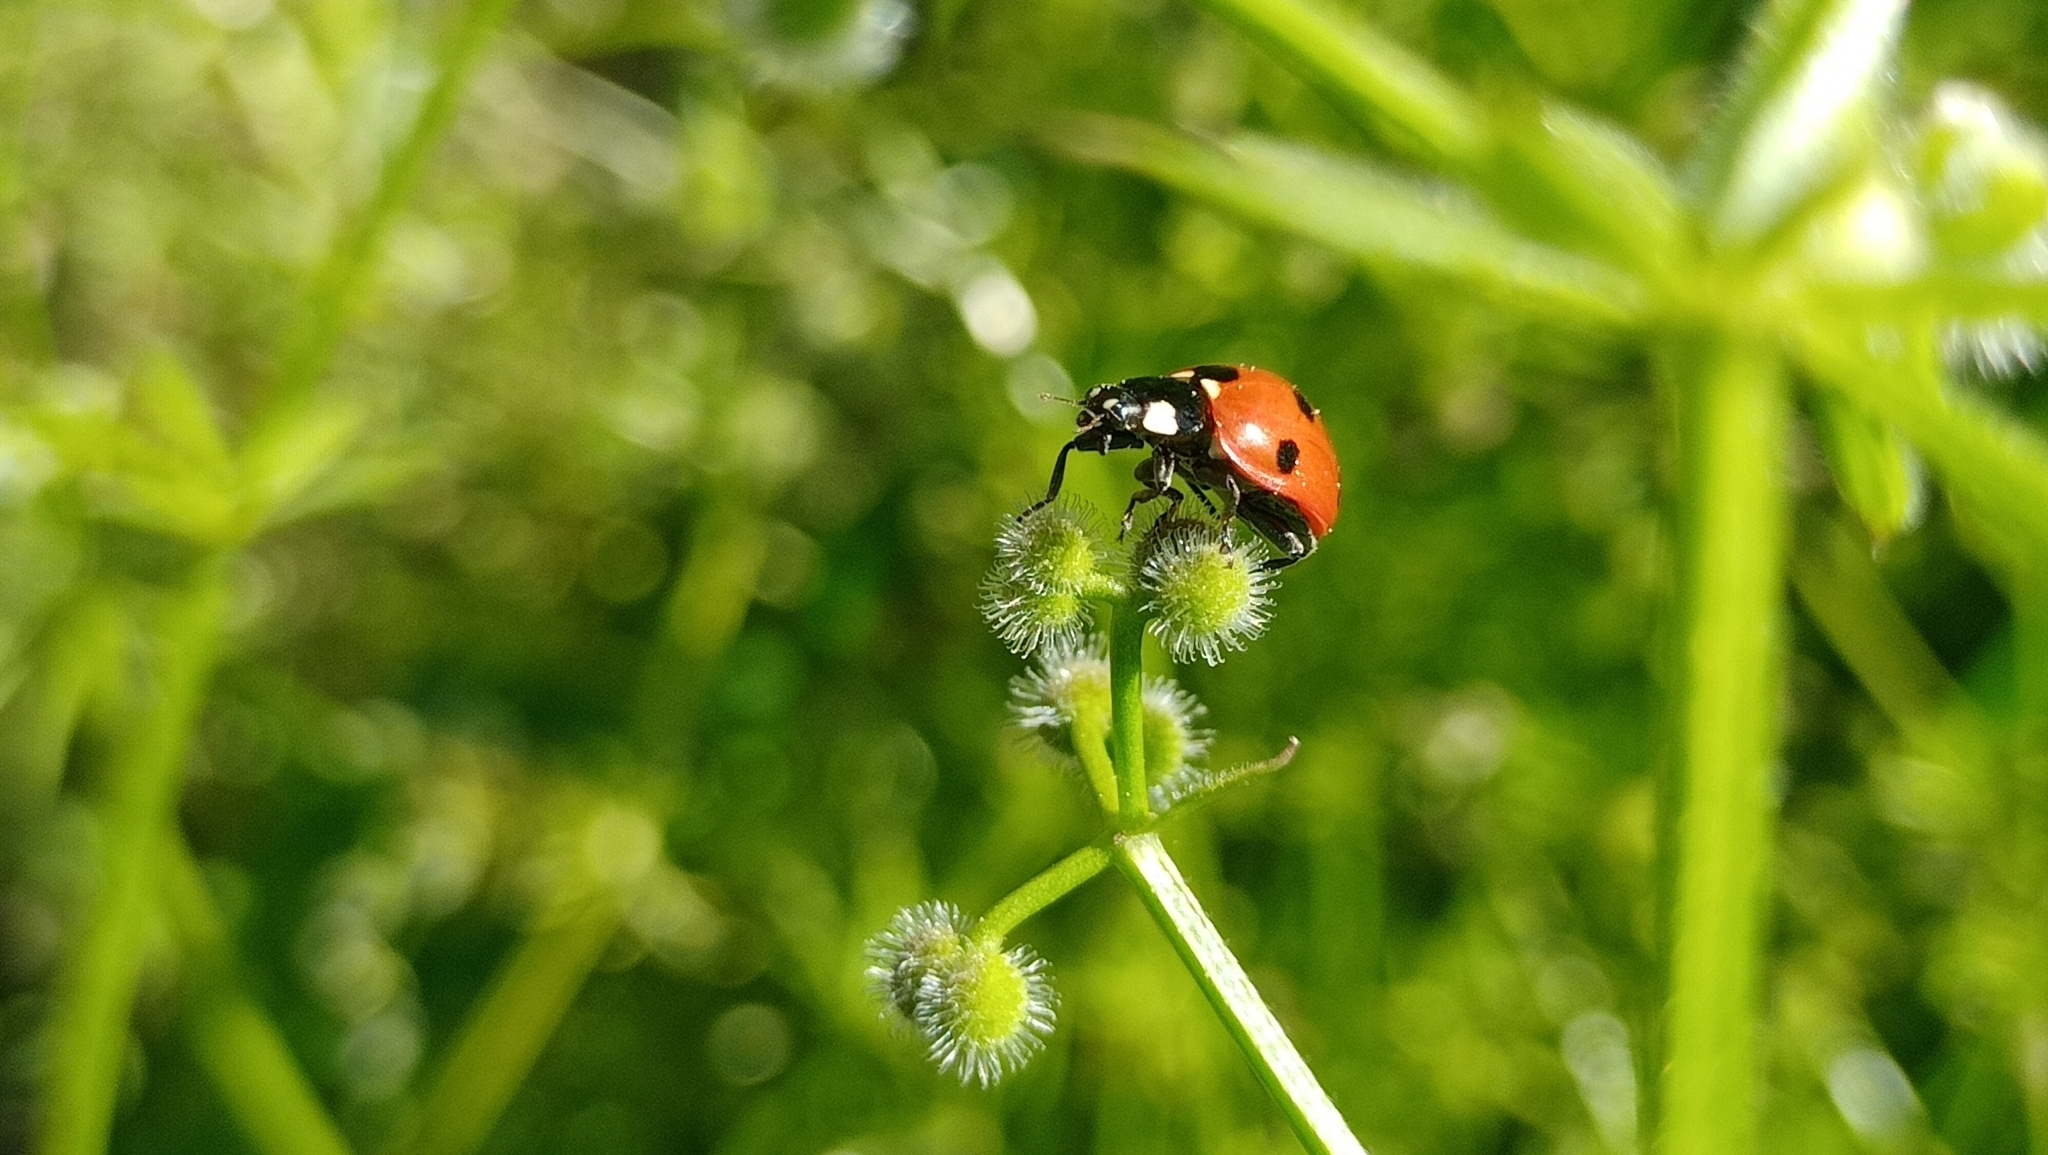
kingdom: Animalia
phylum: Arthropoda
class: Insecta
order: Coleoptera
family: Coccinellidae
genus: Coccinella
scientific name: Coccinella septempunctata
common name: Sevenspotted lady beetle
